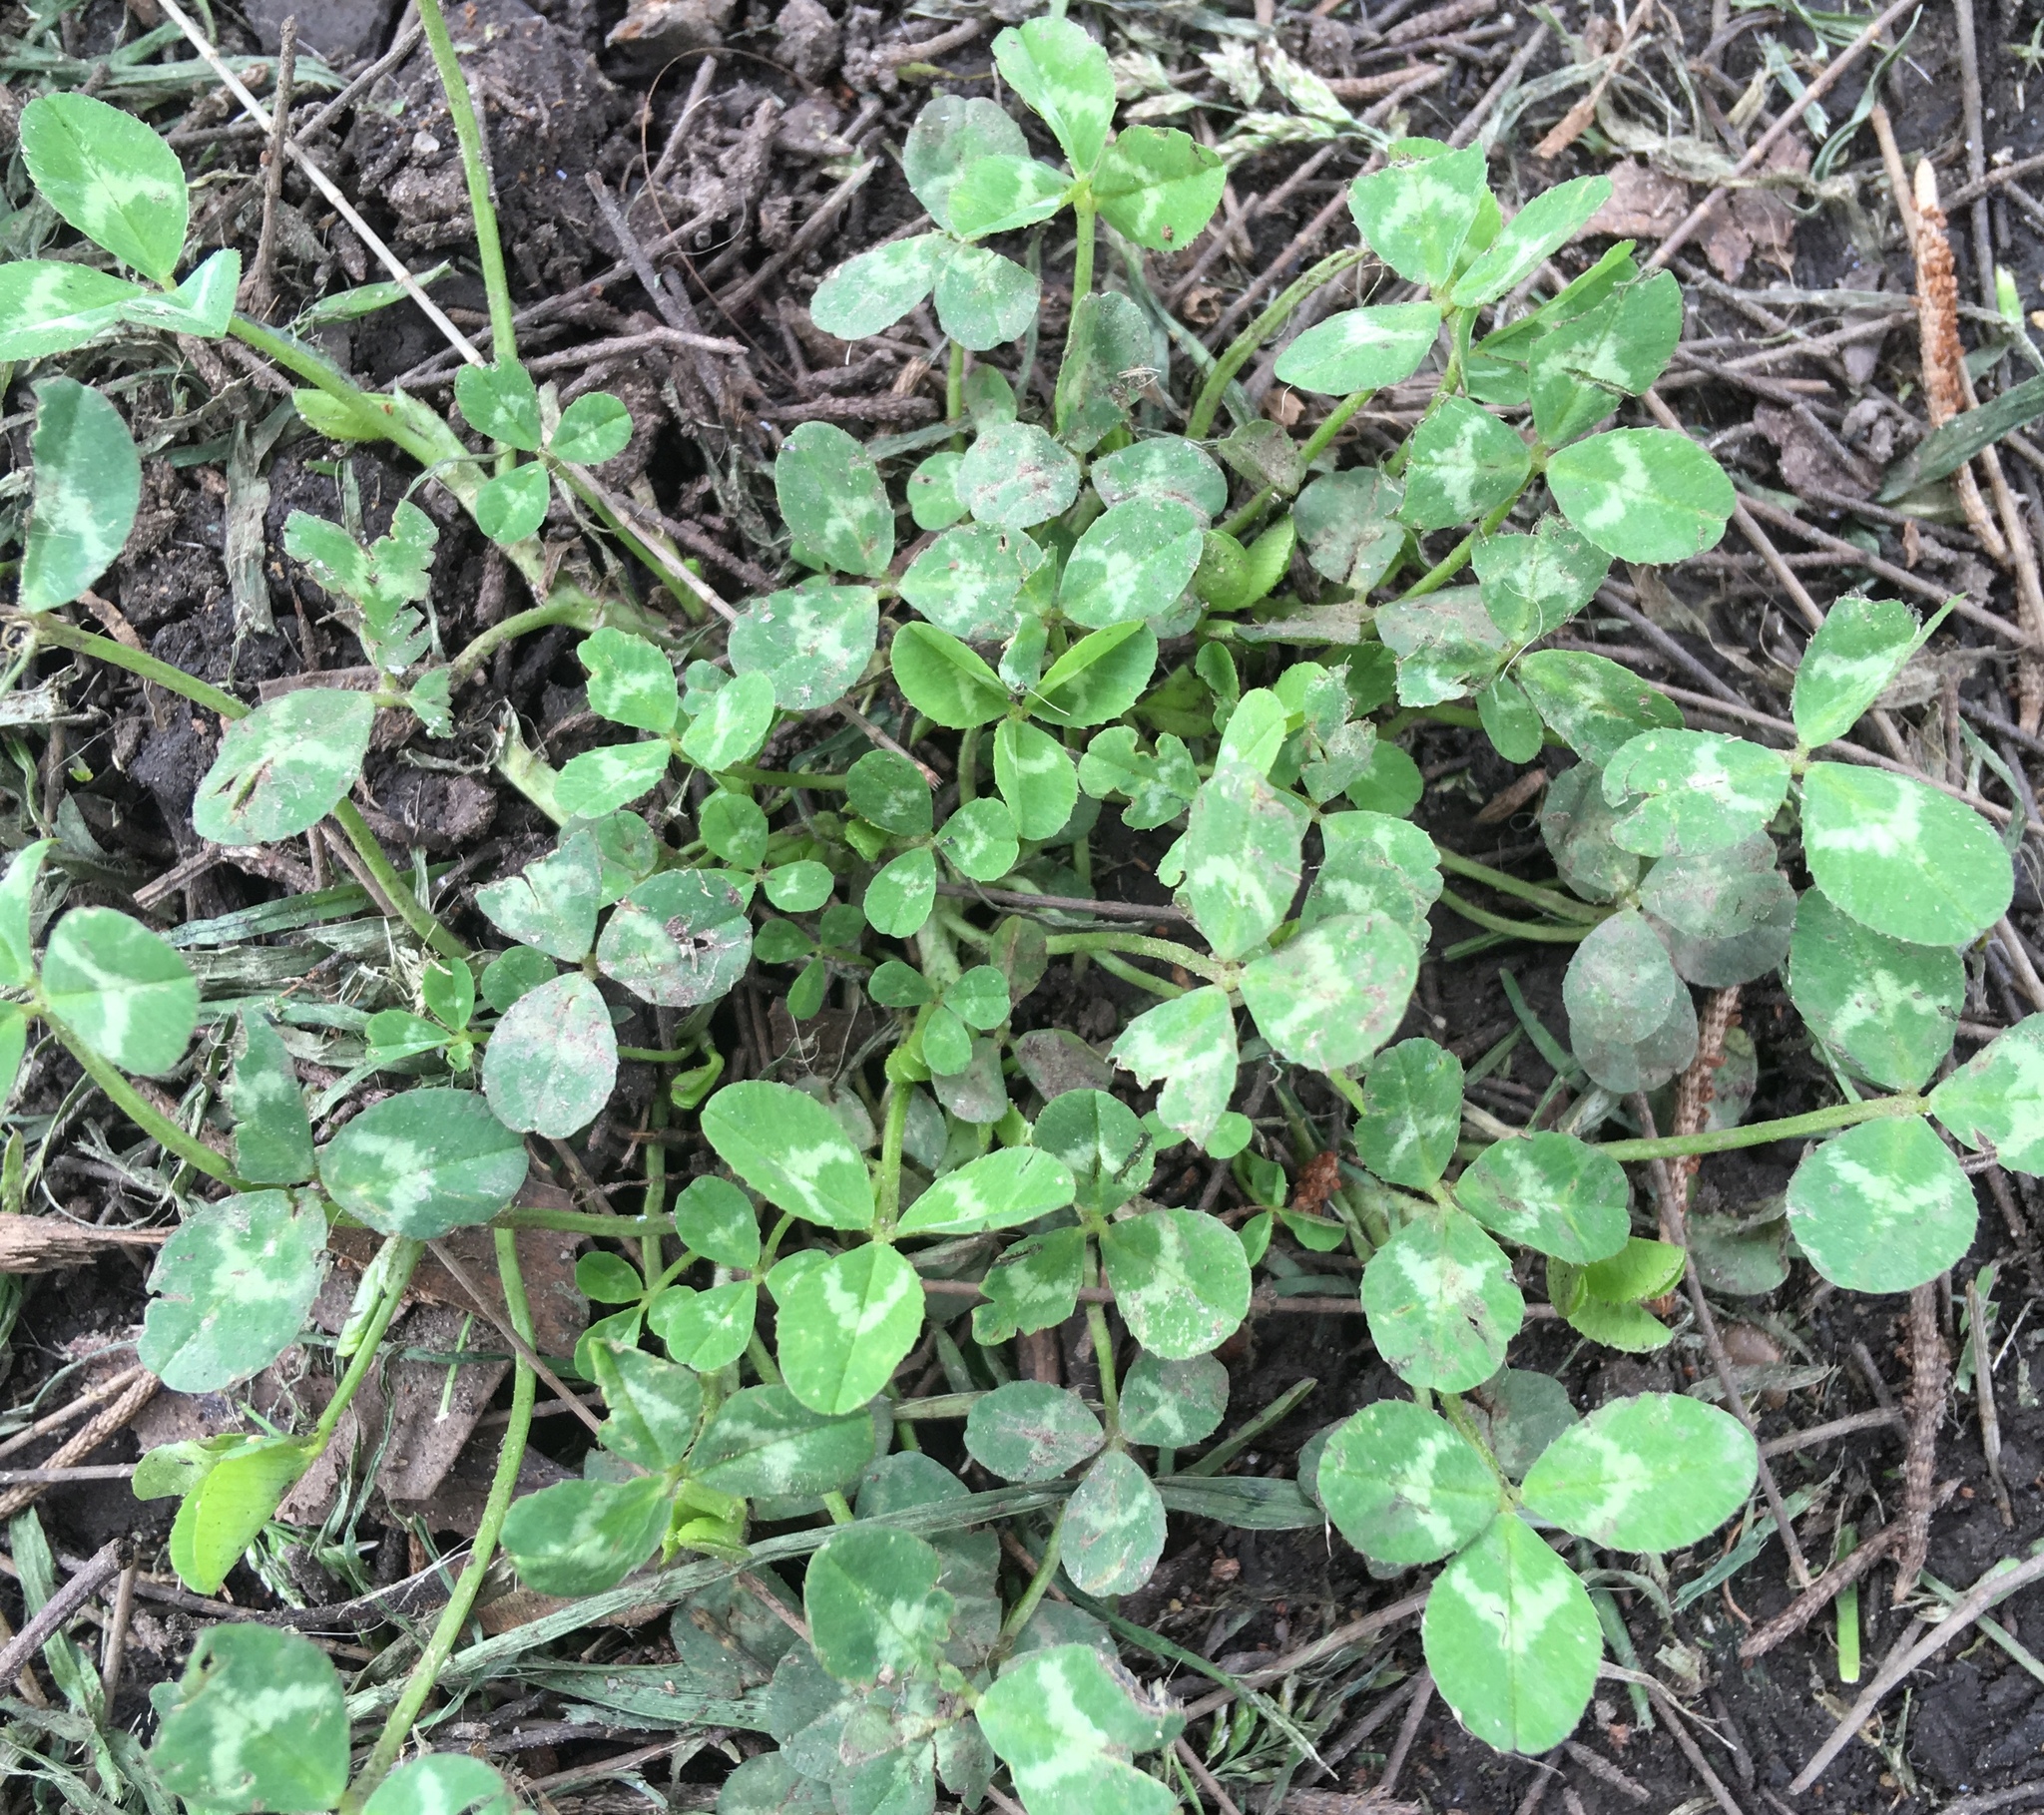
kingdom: Plantae
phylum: Tracheophyta
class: Magnoliopsida
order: Fabales
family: Fabaceae
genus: Trifolium
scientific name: Trifolium repens
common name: White clover
